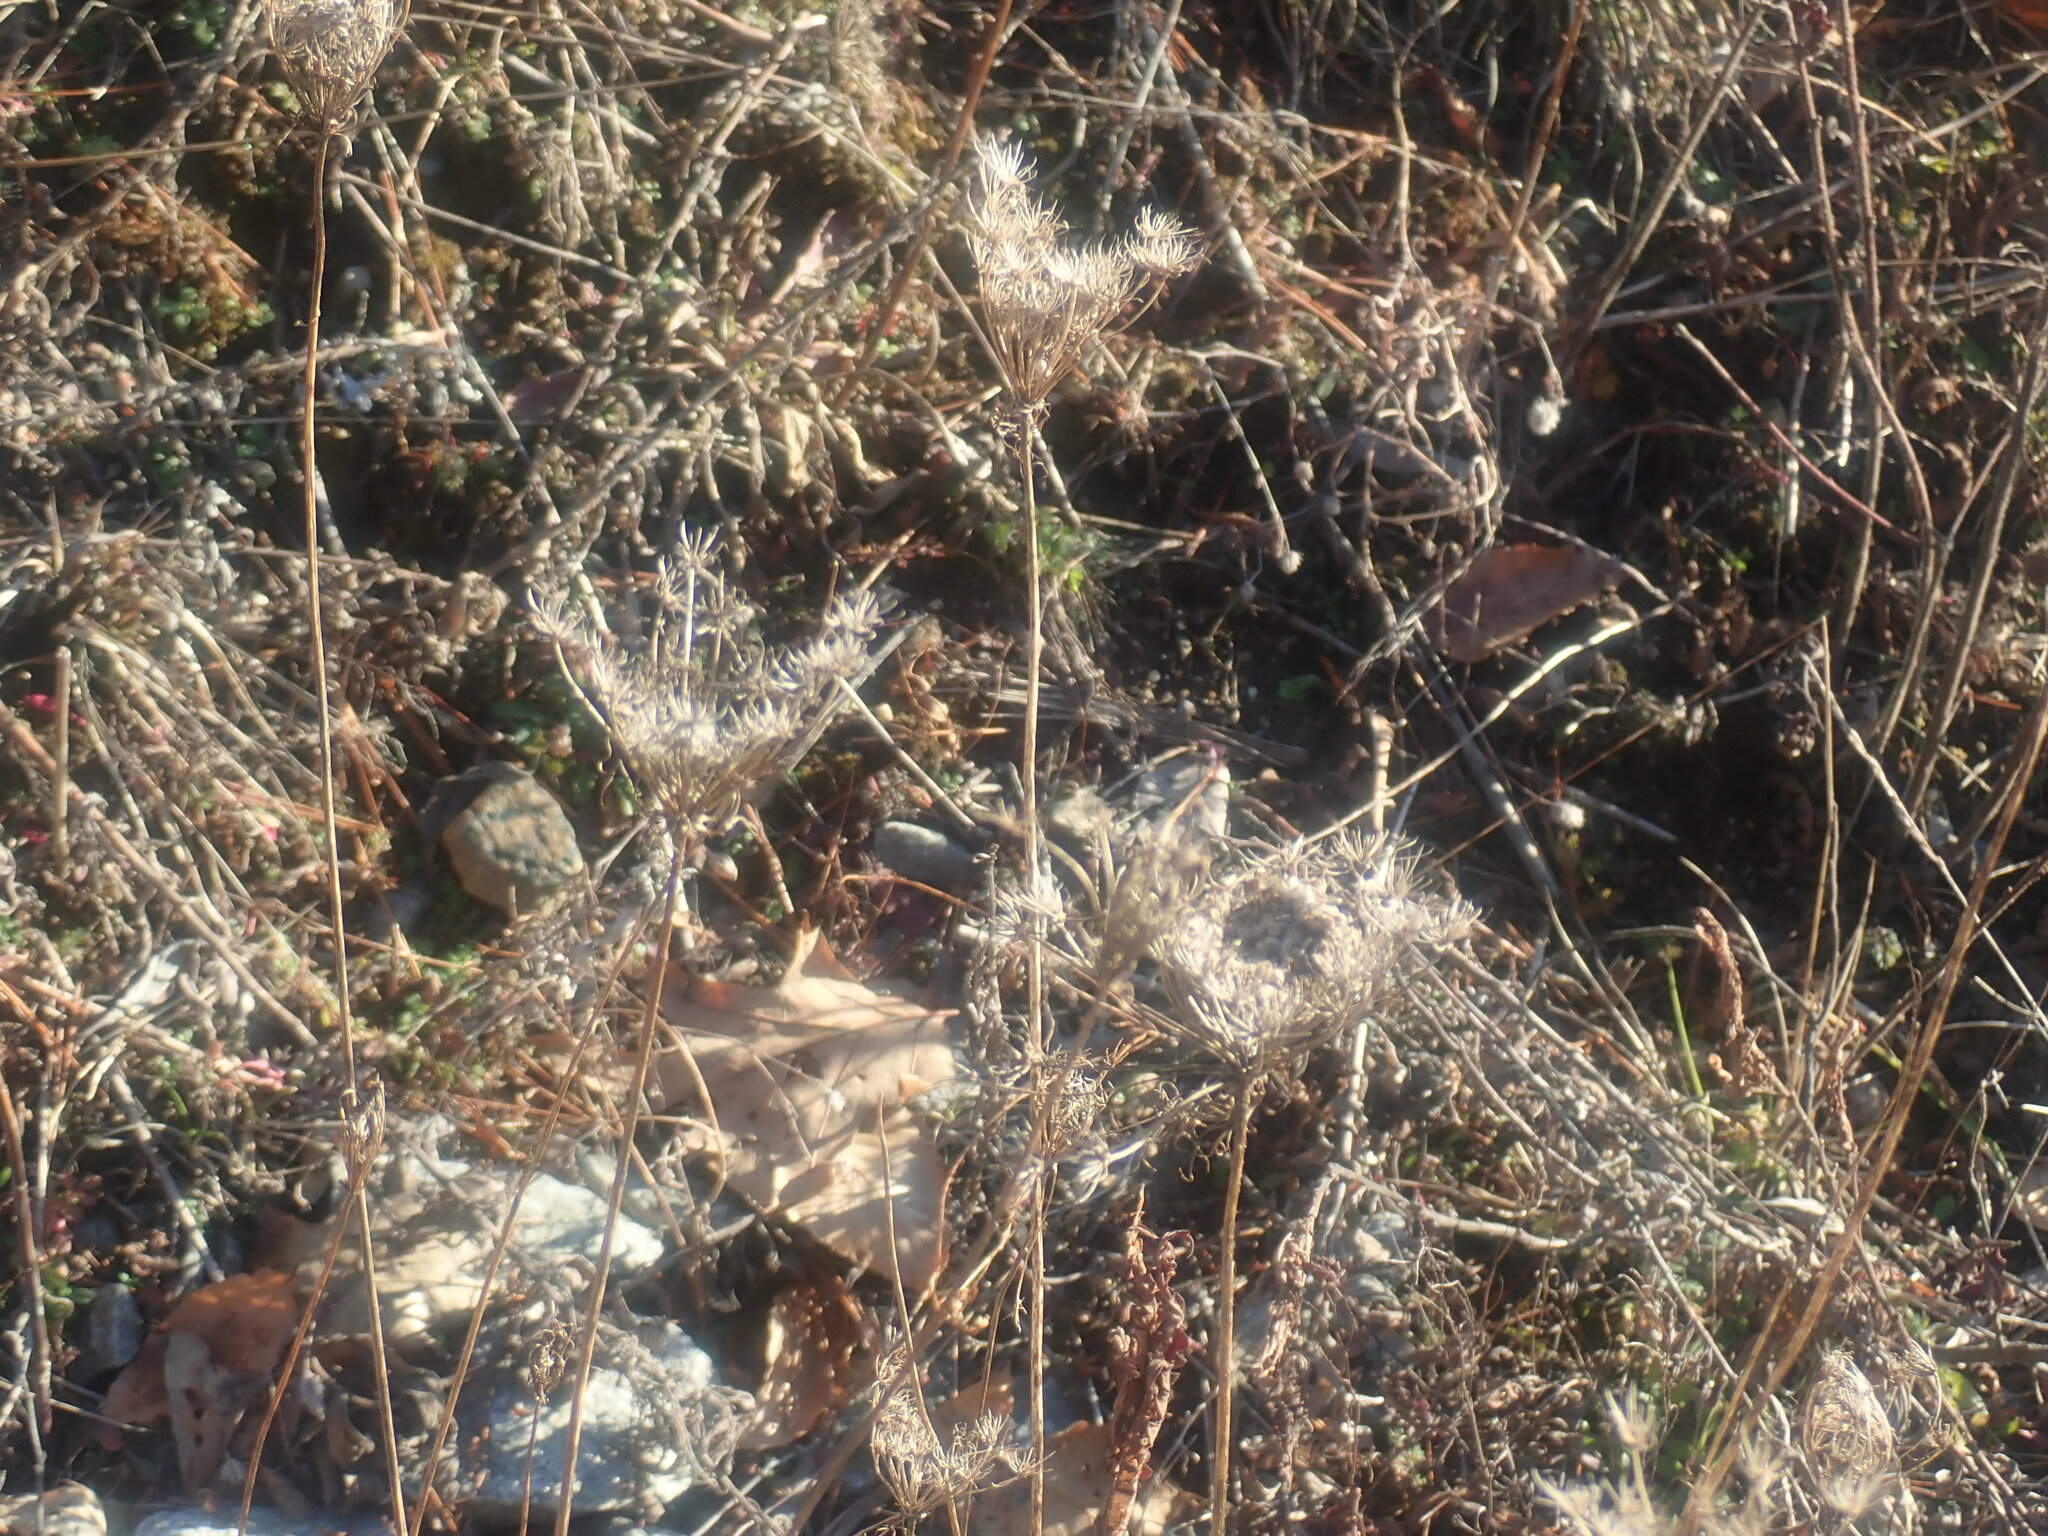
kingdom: Plantae
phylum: Tracheophyta
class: Magnoliopsida
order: Apiales
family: Apiaceae
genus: Daucus
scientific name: Daucus carota
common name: Wild carrot
